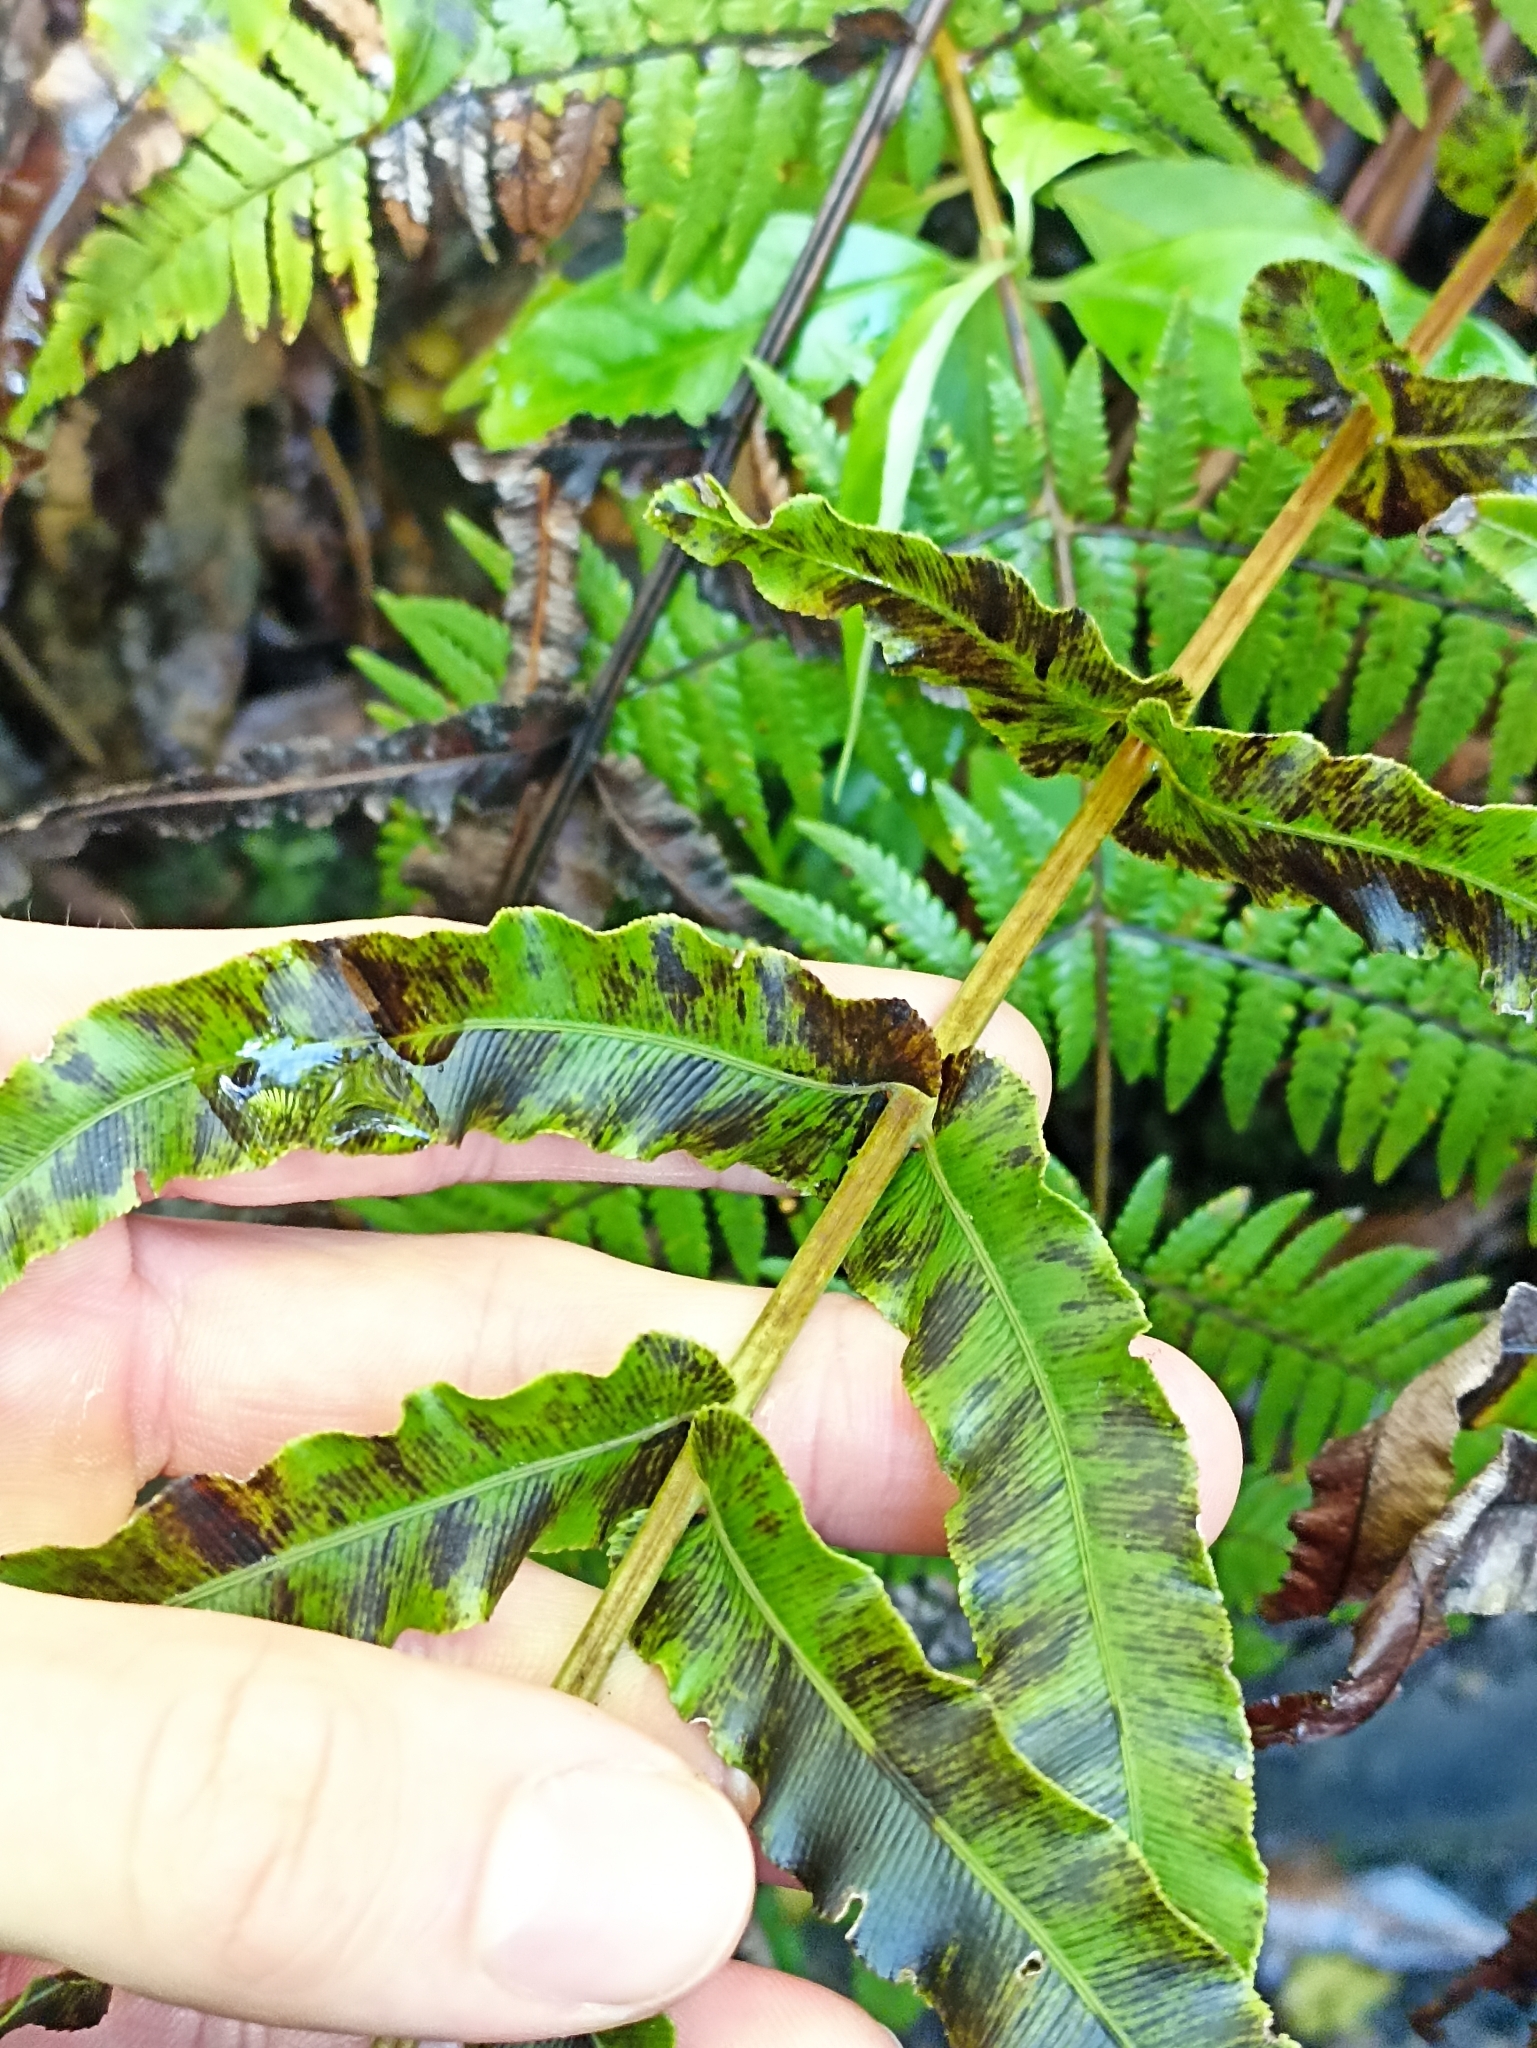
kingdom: Plantae
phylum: Tracheophyta
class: Polypodiopsida
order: Polypodiales
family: Blechnaceae
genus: Parablechnum
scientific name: Parablechnum novae-zelandiae
